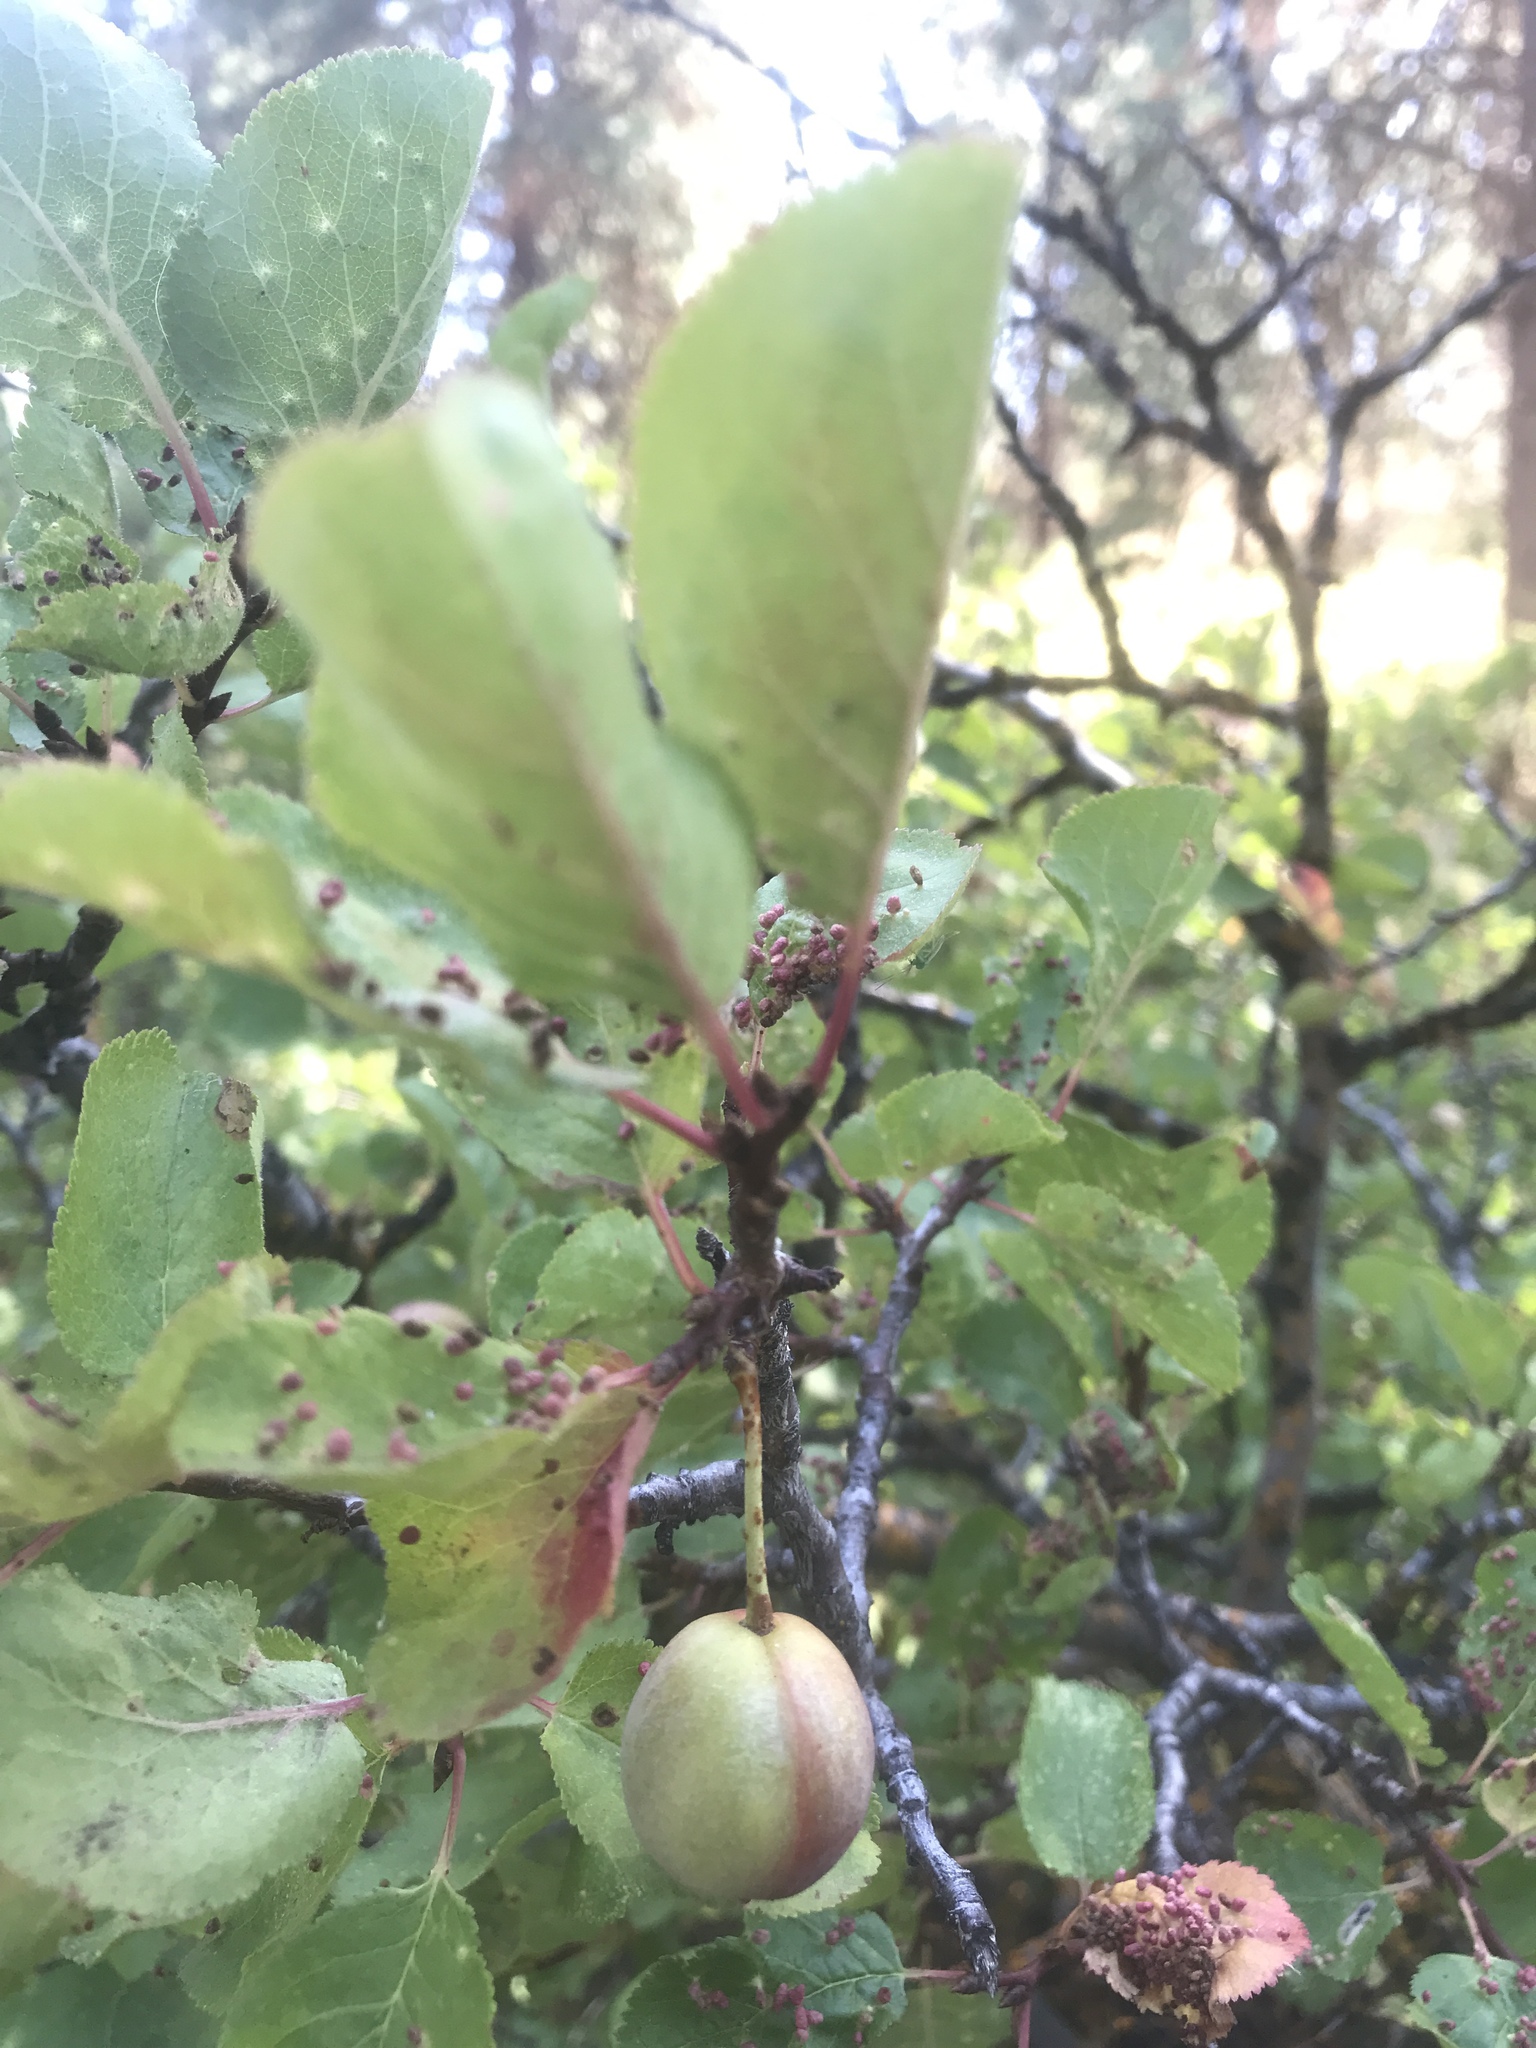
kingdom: Plantae
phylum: Tracheophyta
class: Magnoliopsida
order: Rosales
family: Rosaceae
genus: Prunus
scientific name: Prunus subcordata
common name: Klamath plum
